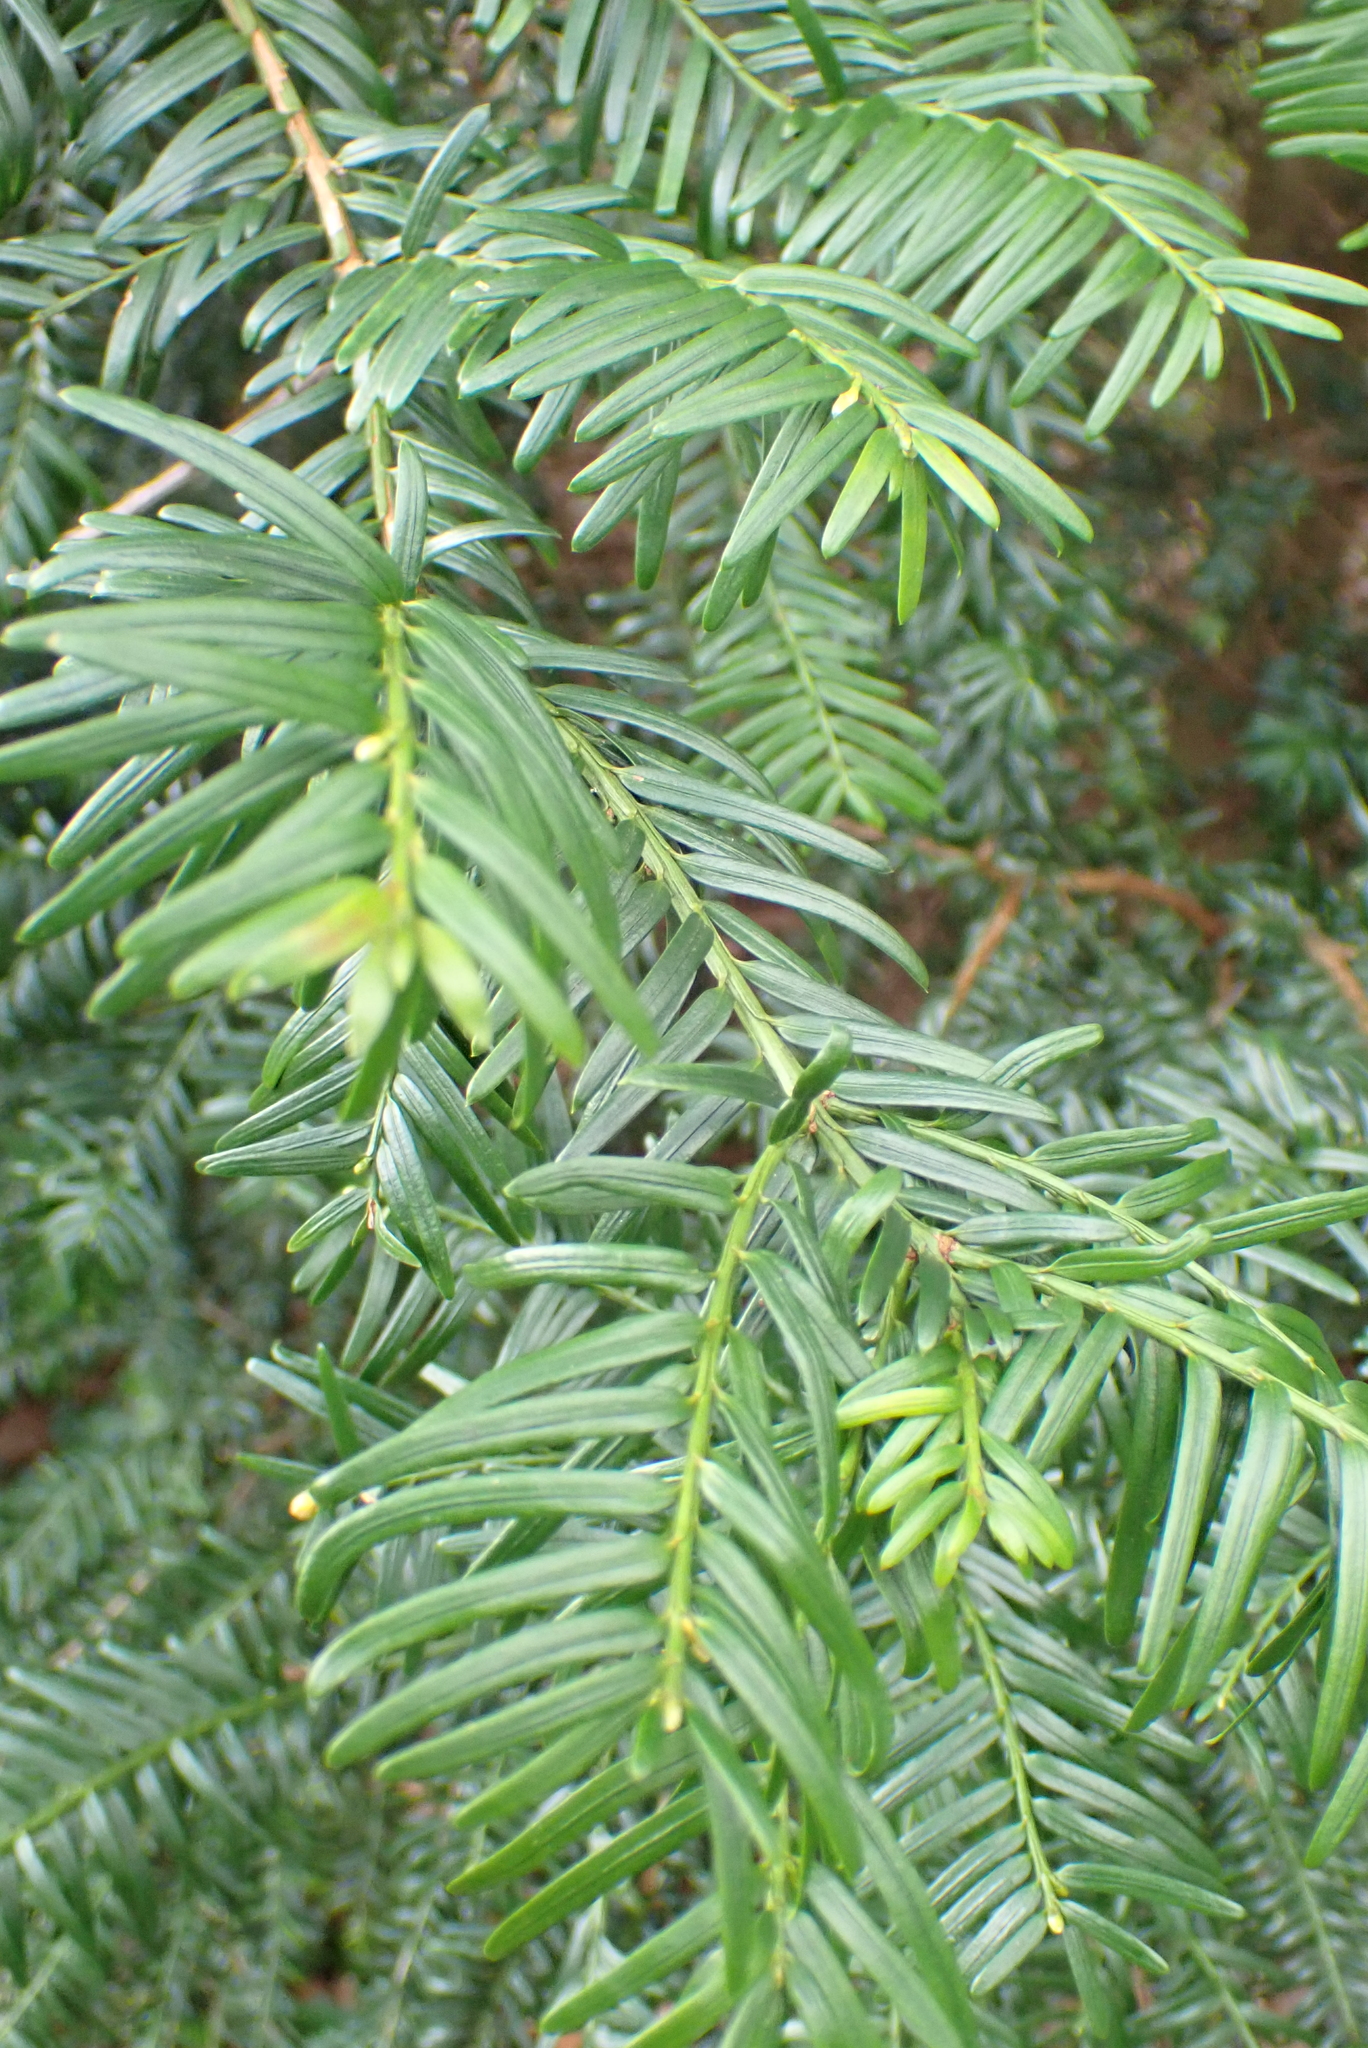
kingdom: Plantae
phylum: Tracheophyta
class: Pinopsida
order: Pinales
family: Taxaceae
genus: Taxus
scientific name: Taxus baccata
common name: Yew
